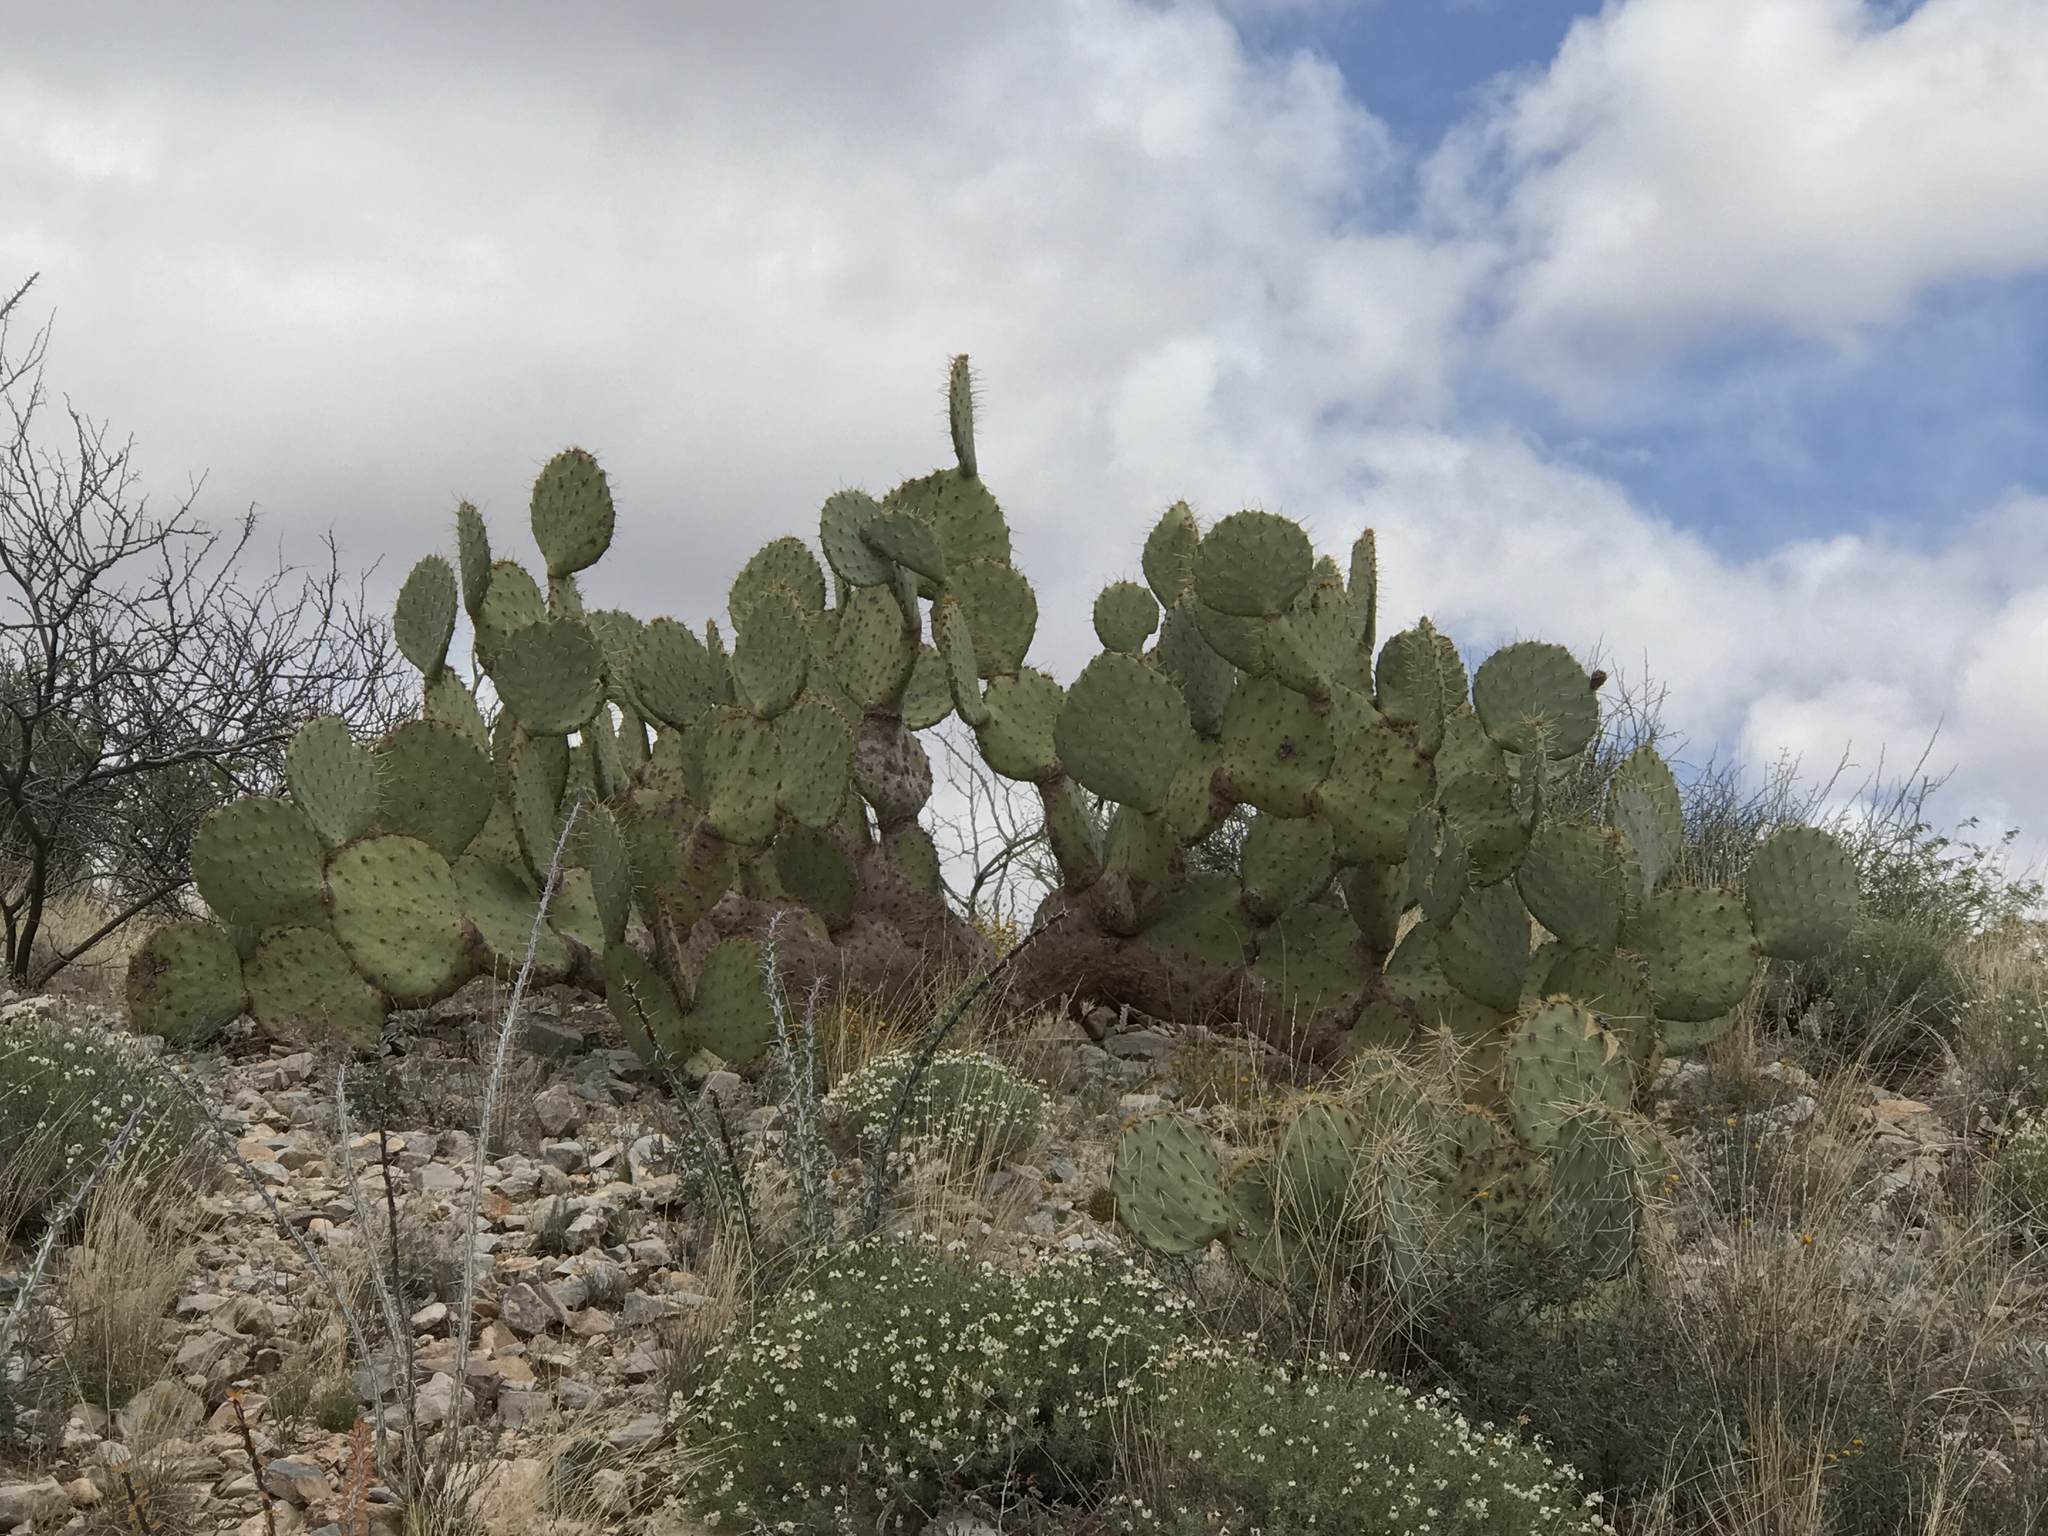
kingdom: Plantae
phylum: Tracheophyta
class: Magnoliopsida
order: Caryophyllales
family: Cactaceae
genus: Opuntia
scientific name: Opuntia engelmannii
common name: Cactus-apple
